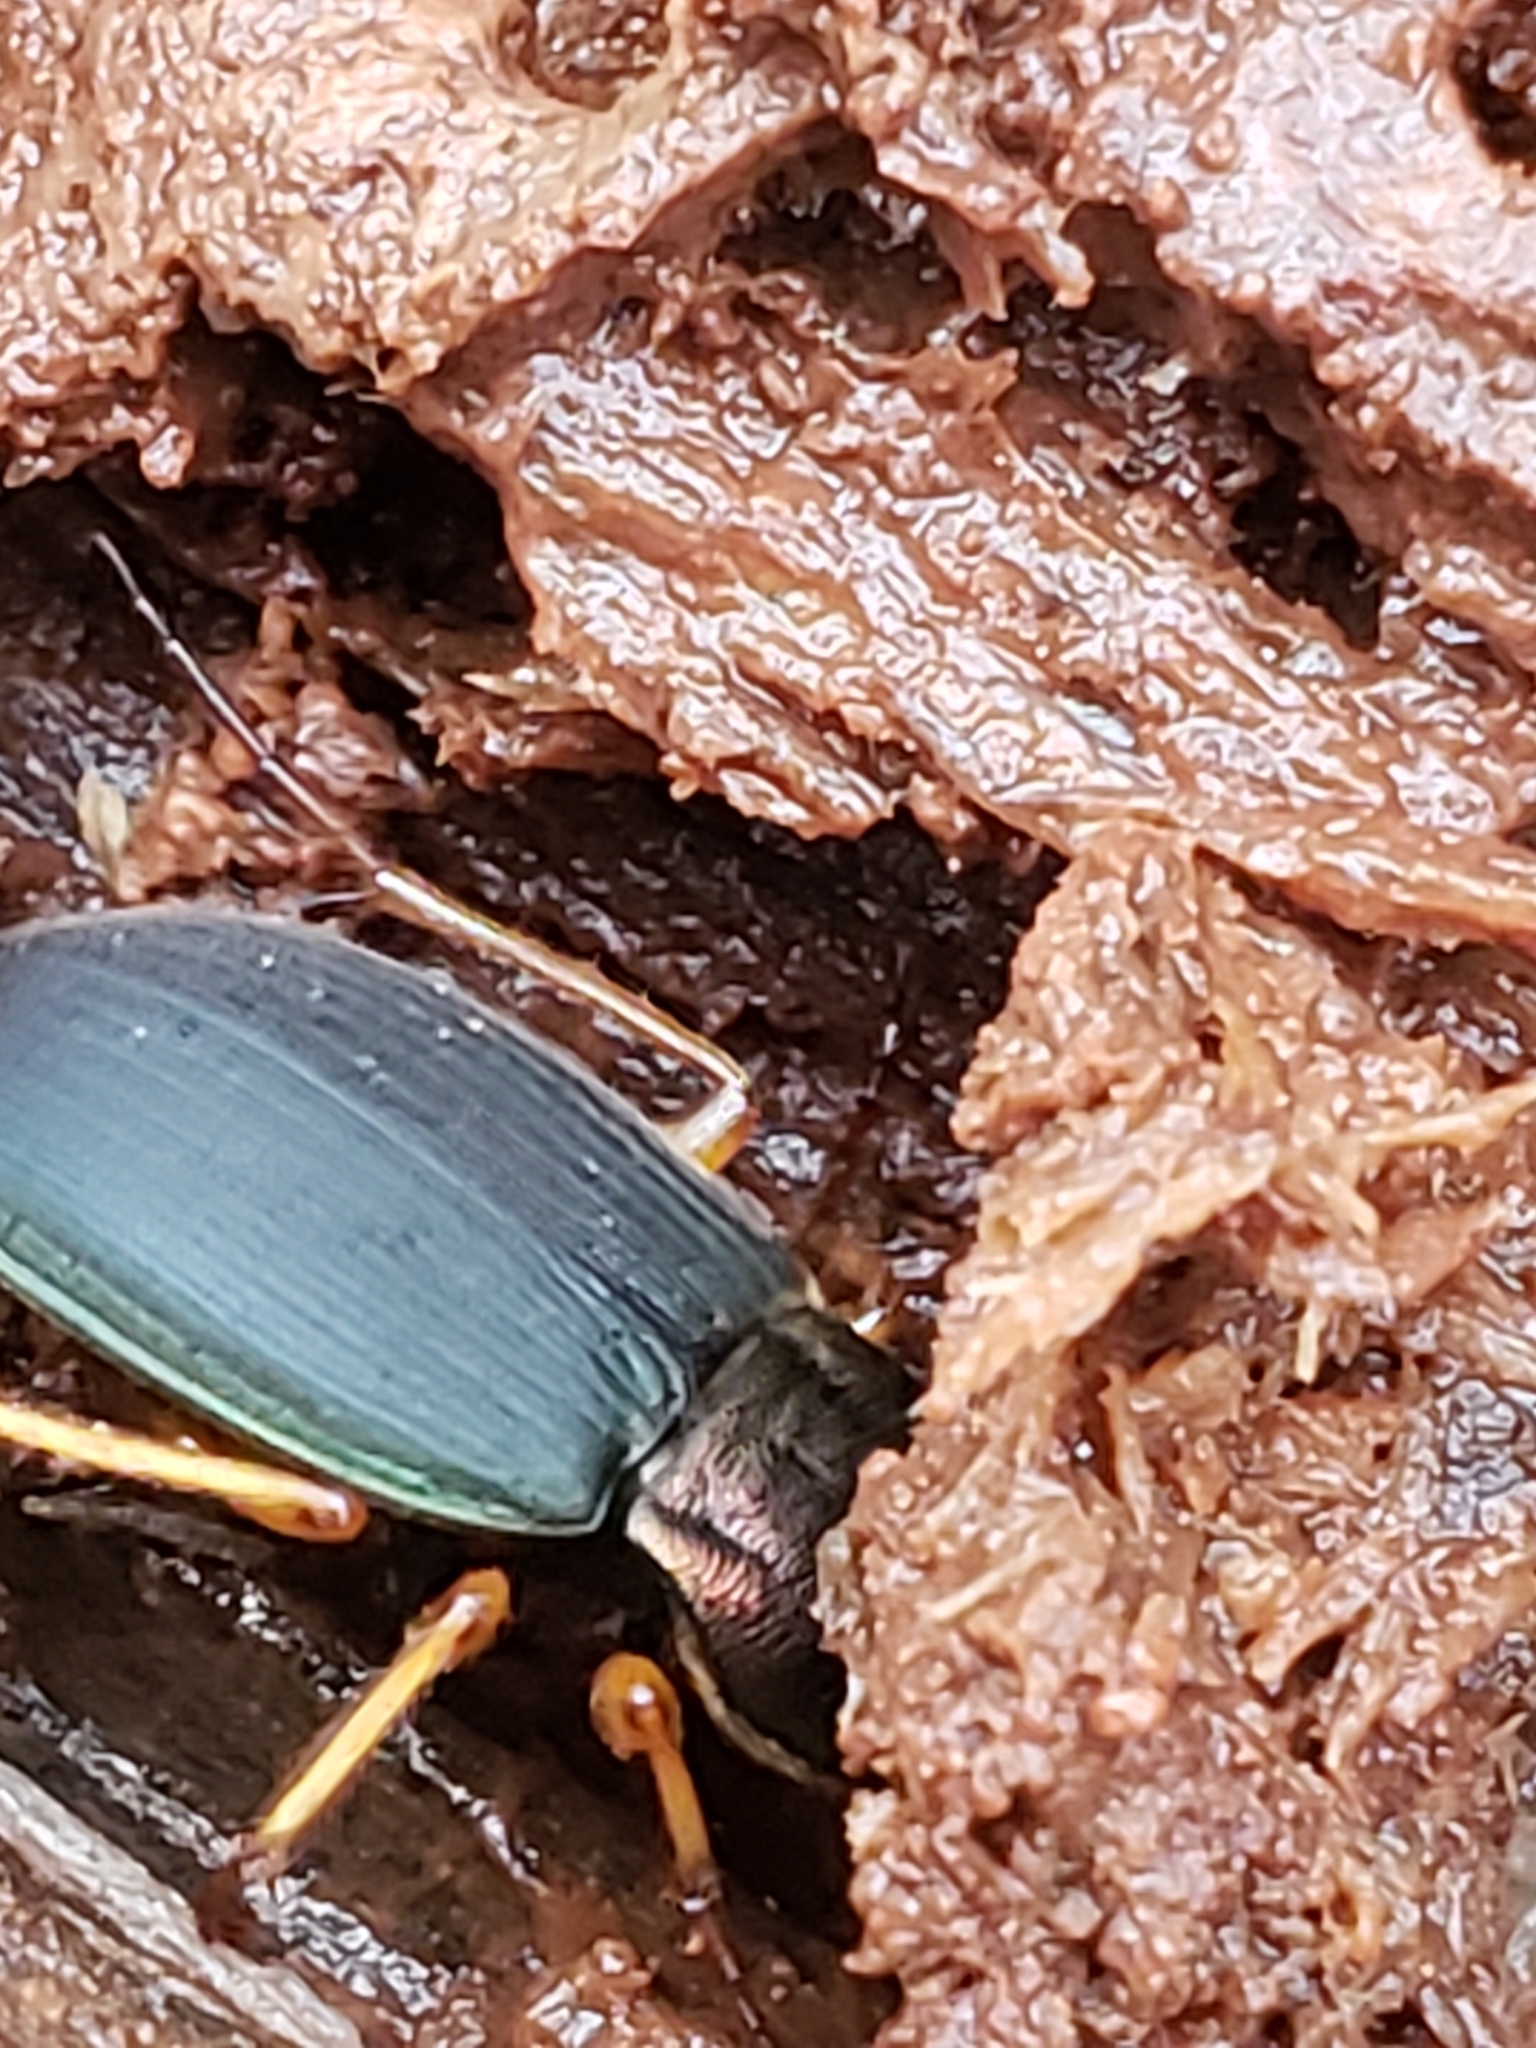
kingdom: Animalia
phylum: Arthropoda
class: Insecta
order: Coleoptera
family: Carabidae
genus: Chlaenius
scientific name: Chlaenius aestivus
